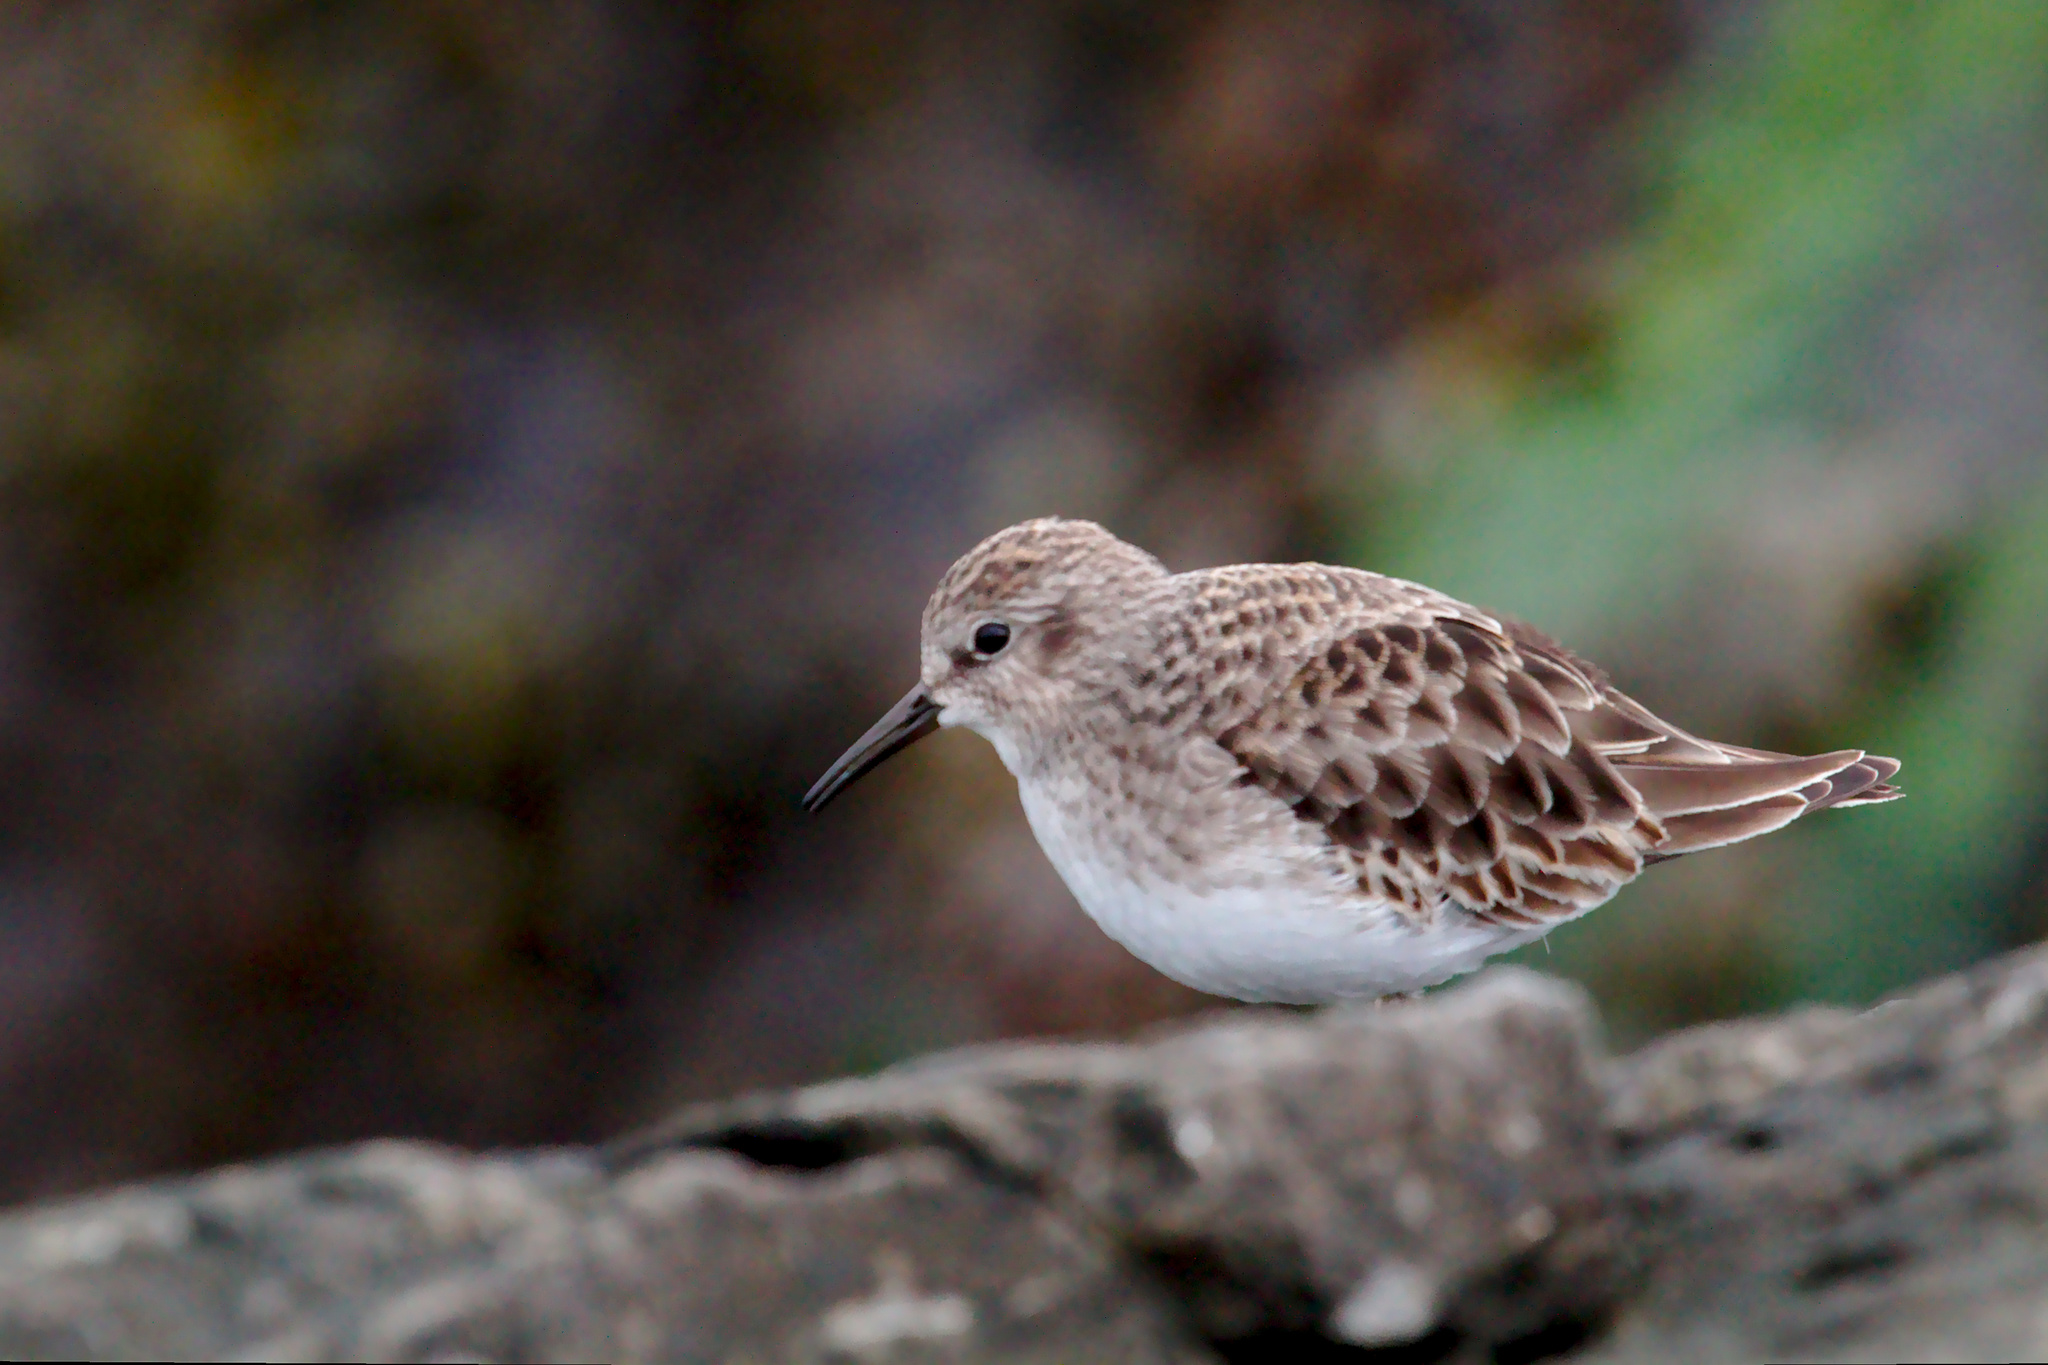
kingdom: Animalia
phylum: Chordata
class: Aves
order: Charadriiformes
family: Scolopacidae
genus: Calidris
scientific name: Calidris minutilla
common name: Least sandpiper
